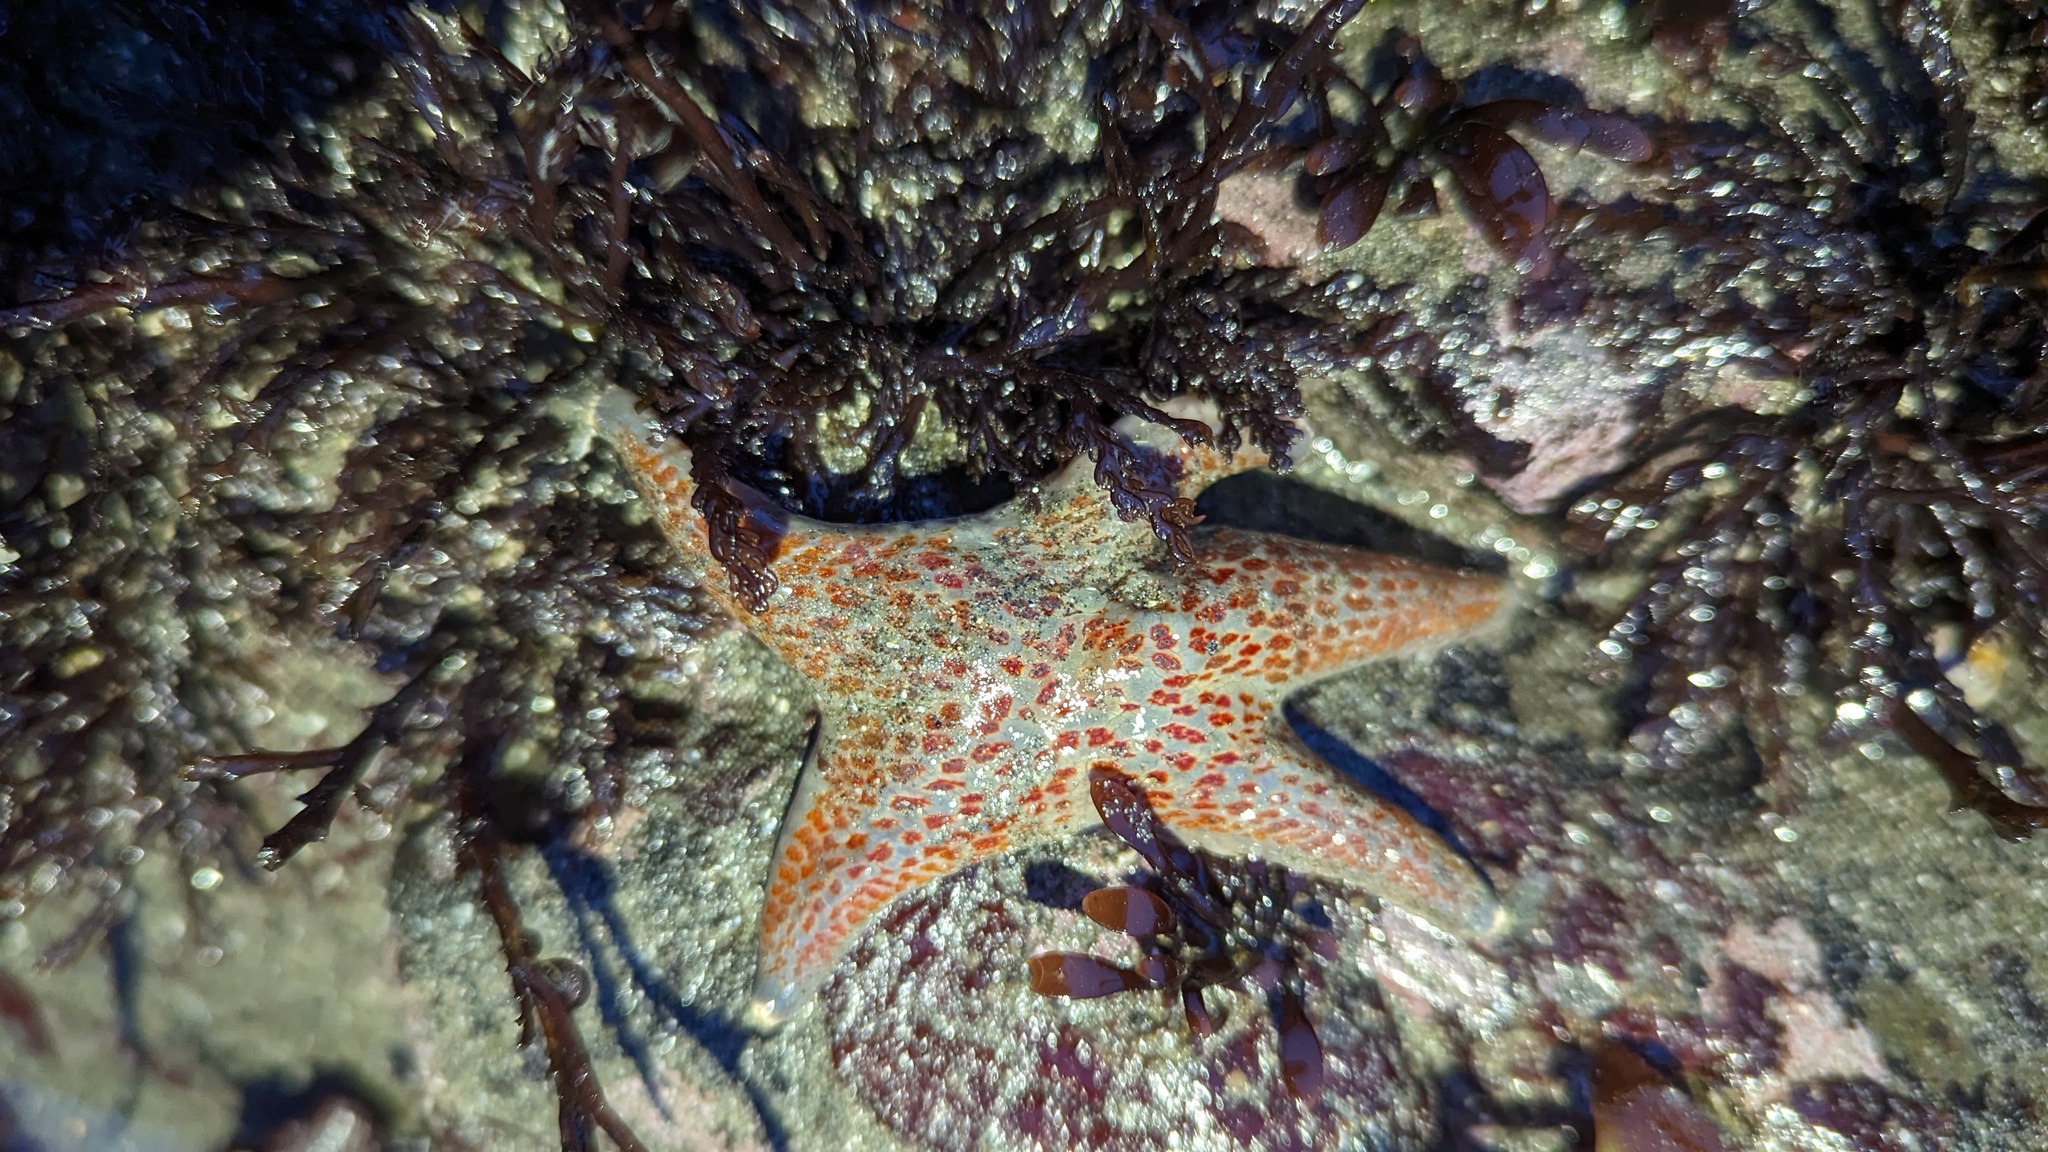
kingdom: Animalia
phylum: Echinodermata
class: Asteroidea
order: Valvatida
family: Asteropseidae
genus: Dermasterias
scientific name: Dermasterias imbricata
